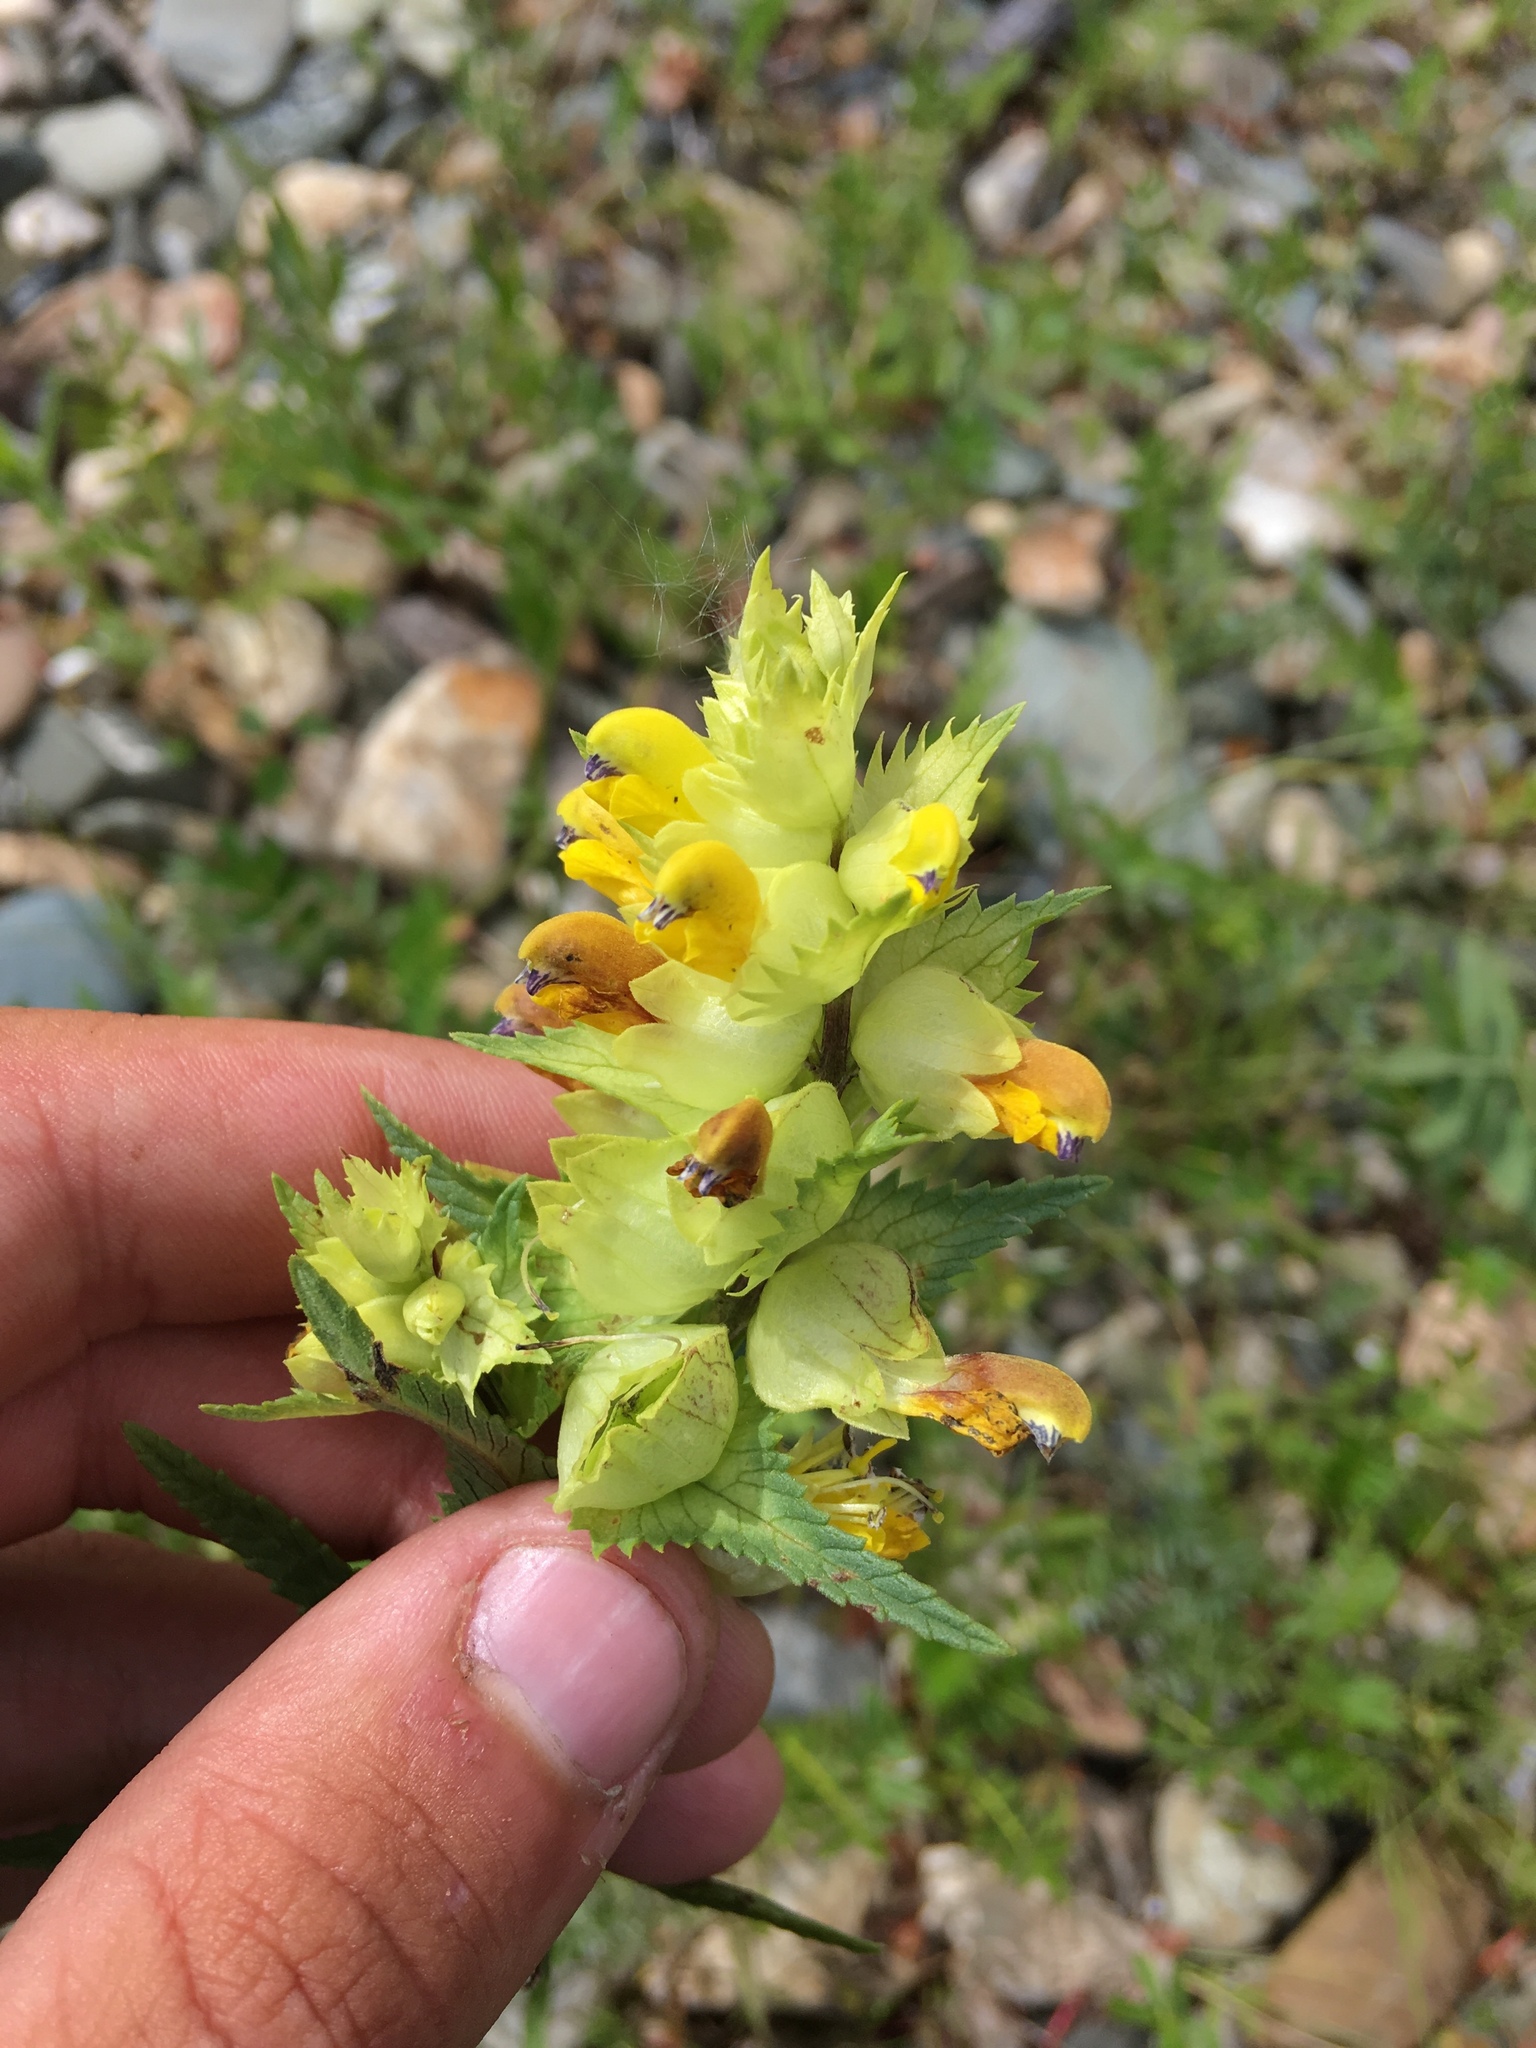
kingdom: Plantae
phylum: Tracheophyta
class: Magnoliopsida
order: Lamiales
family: Orobanchaceae
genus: Rhinanthus
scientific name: Rhinanthus songaricus
